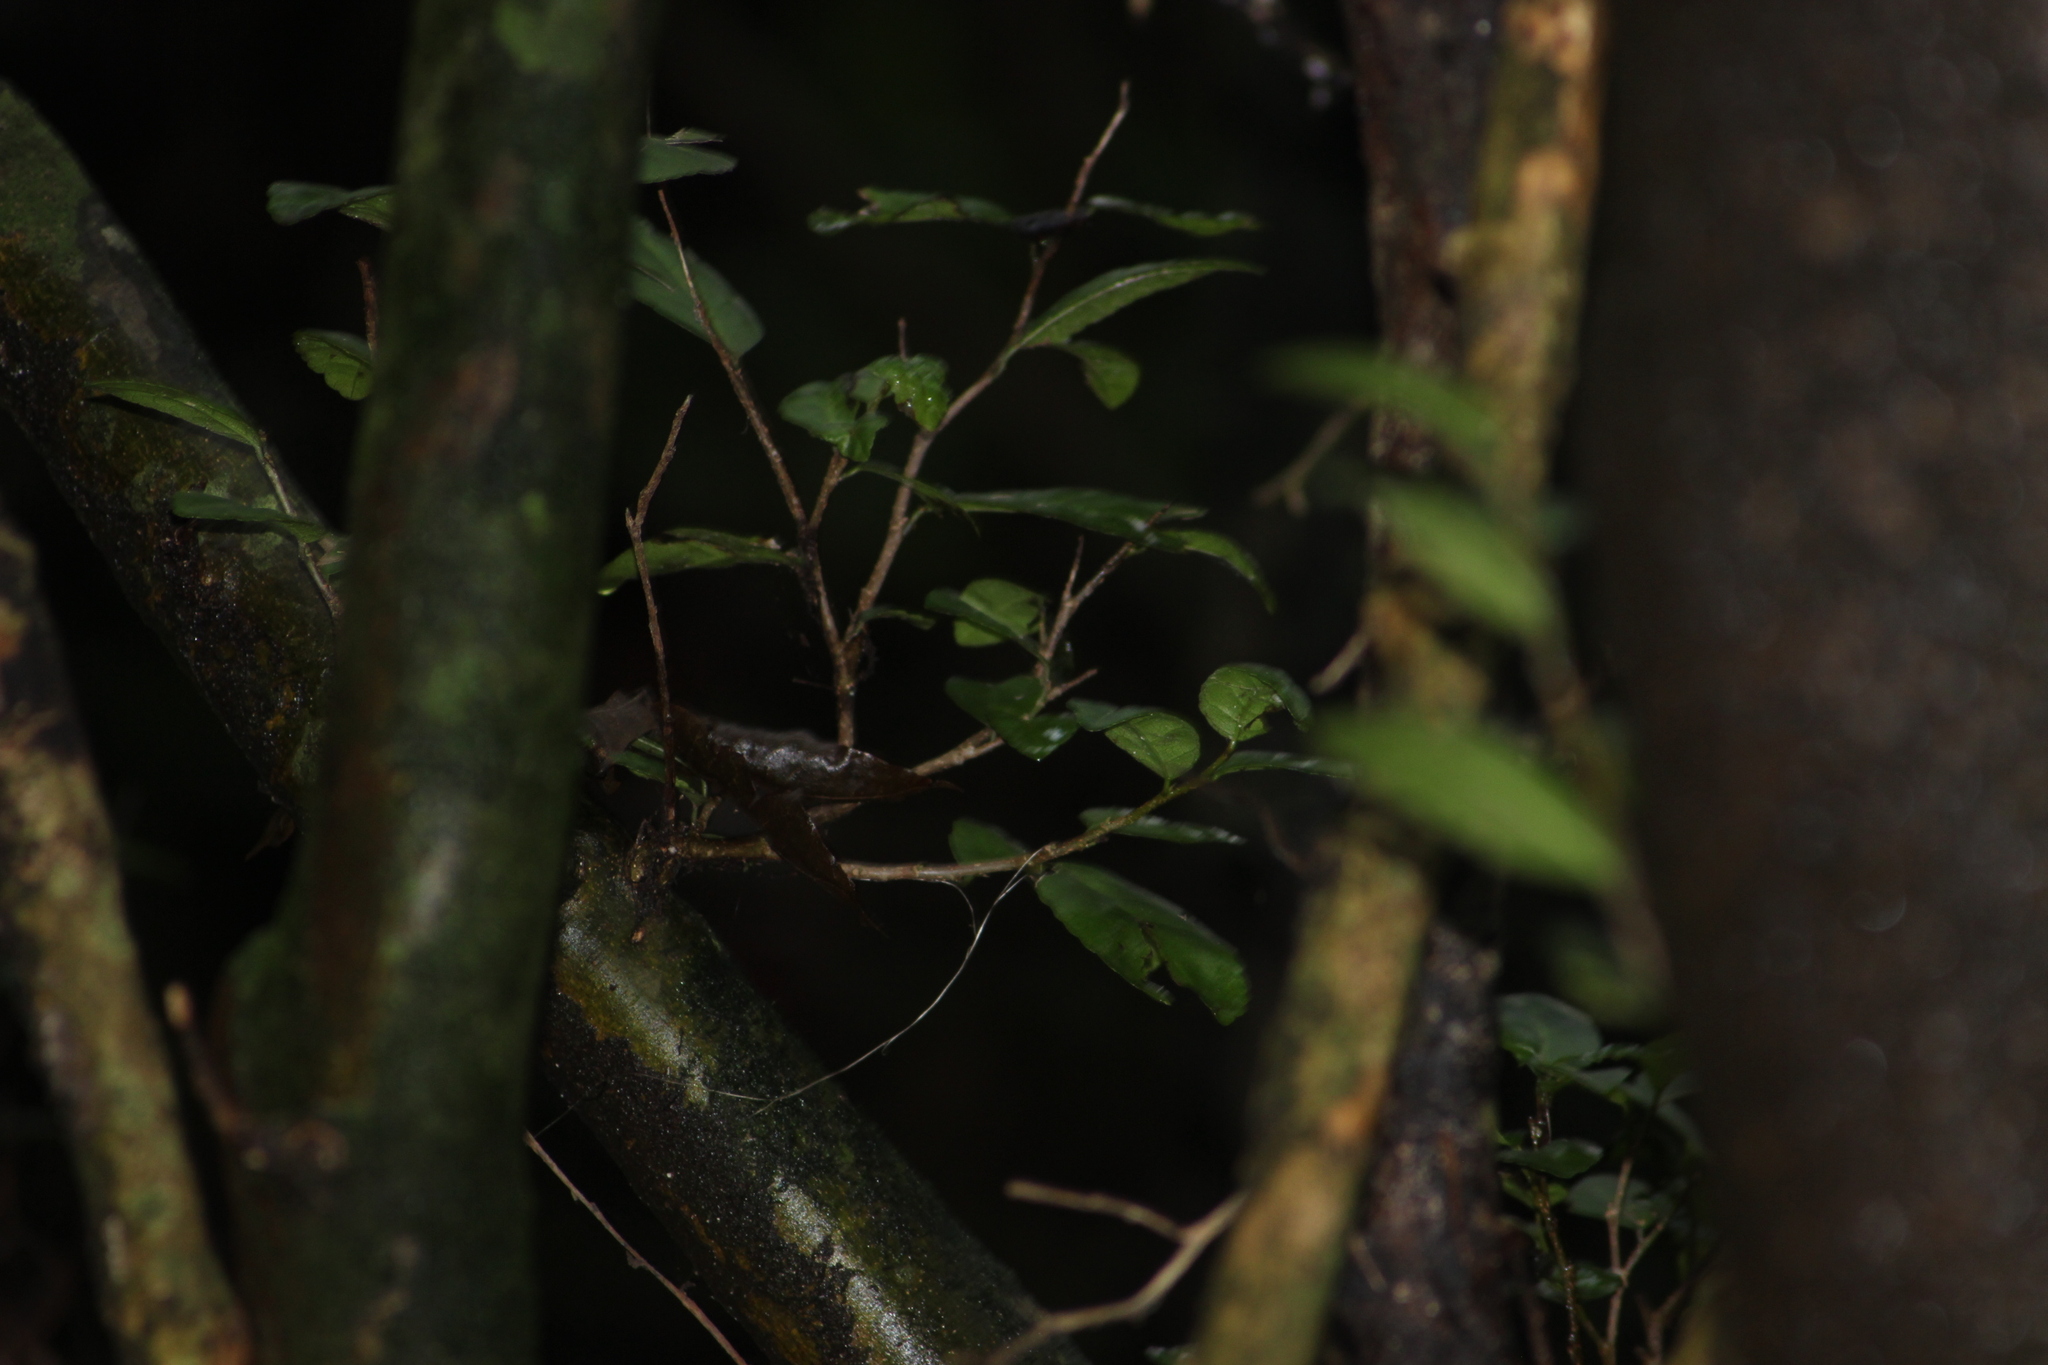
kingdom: Plantae
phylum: Tracheophyta
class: Magnoliopsida
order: Rosales
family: Moraceae
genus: Paratrophis
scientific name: Paratrophis banksii
